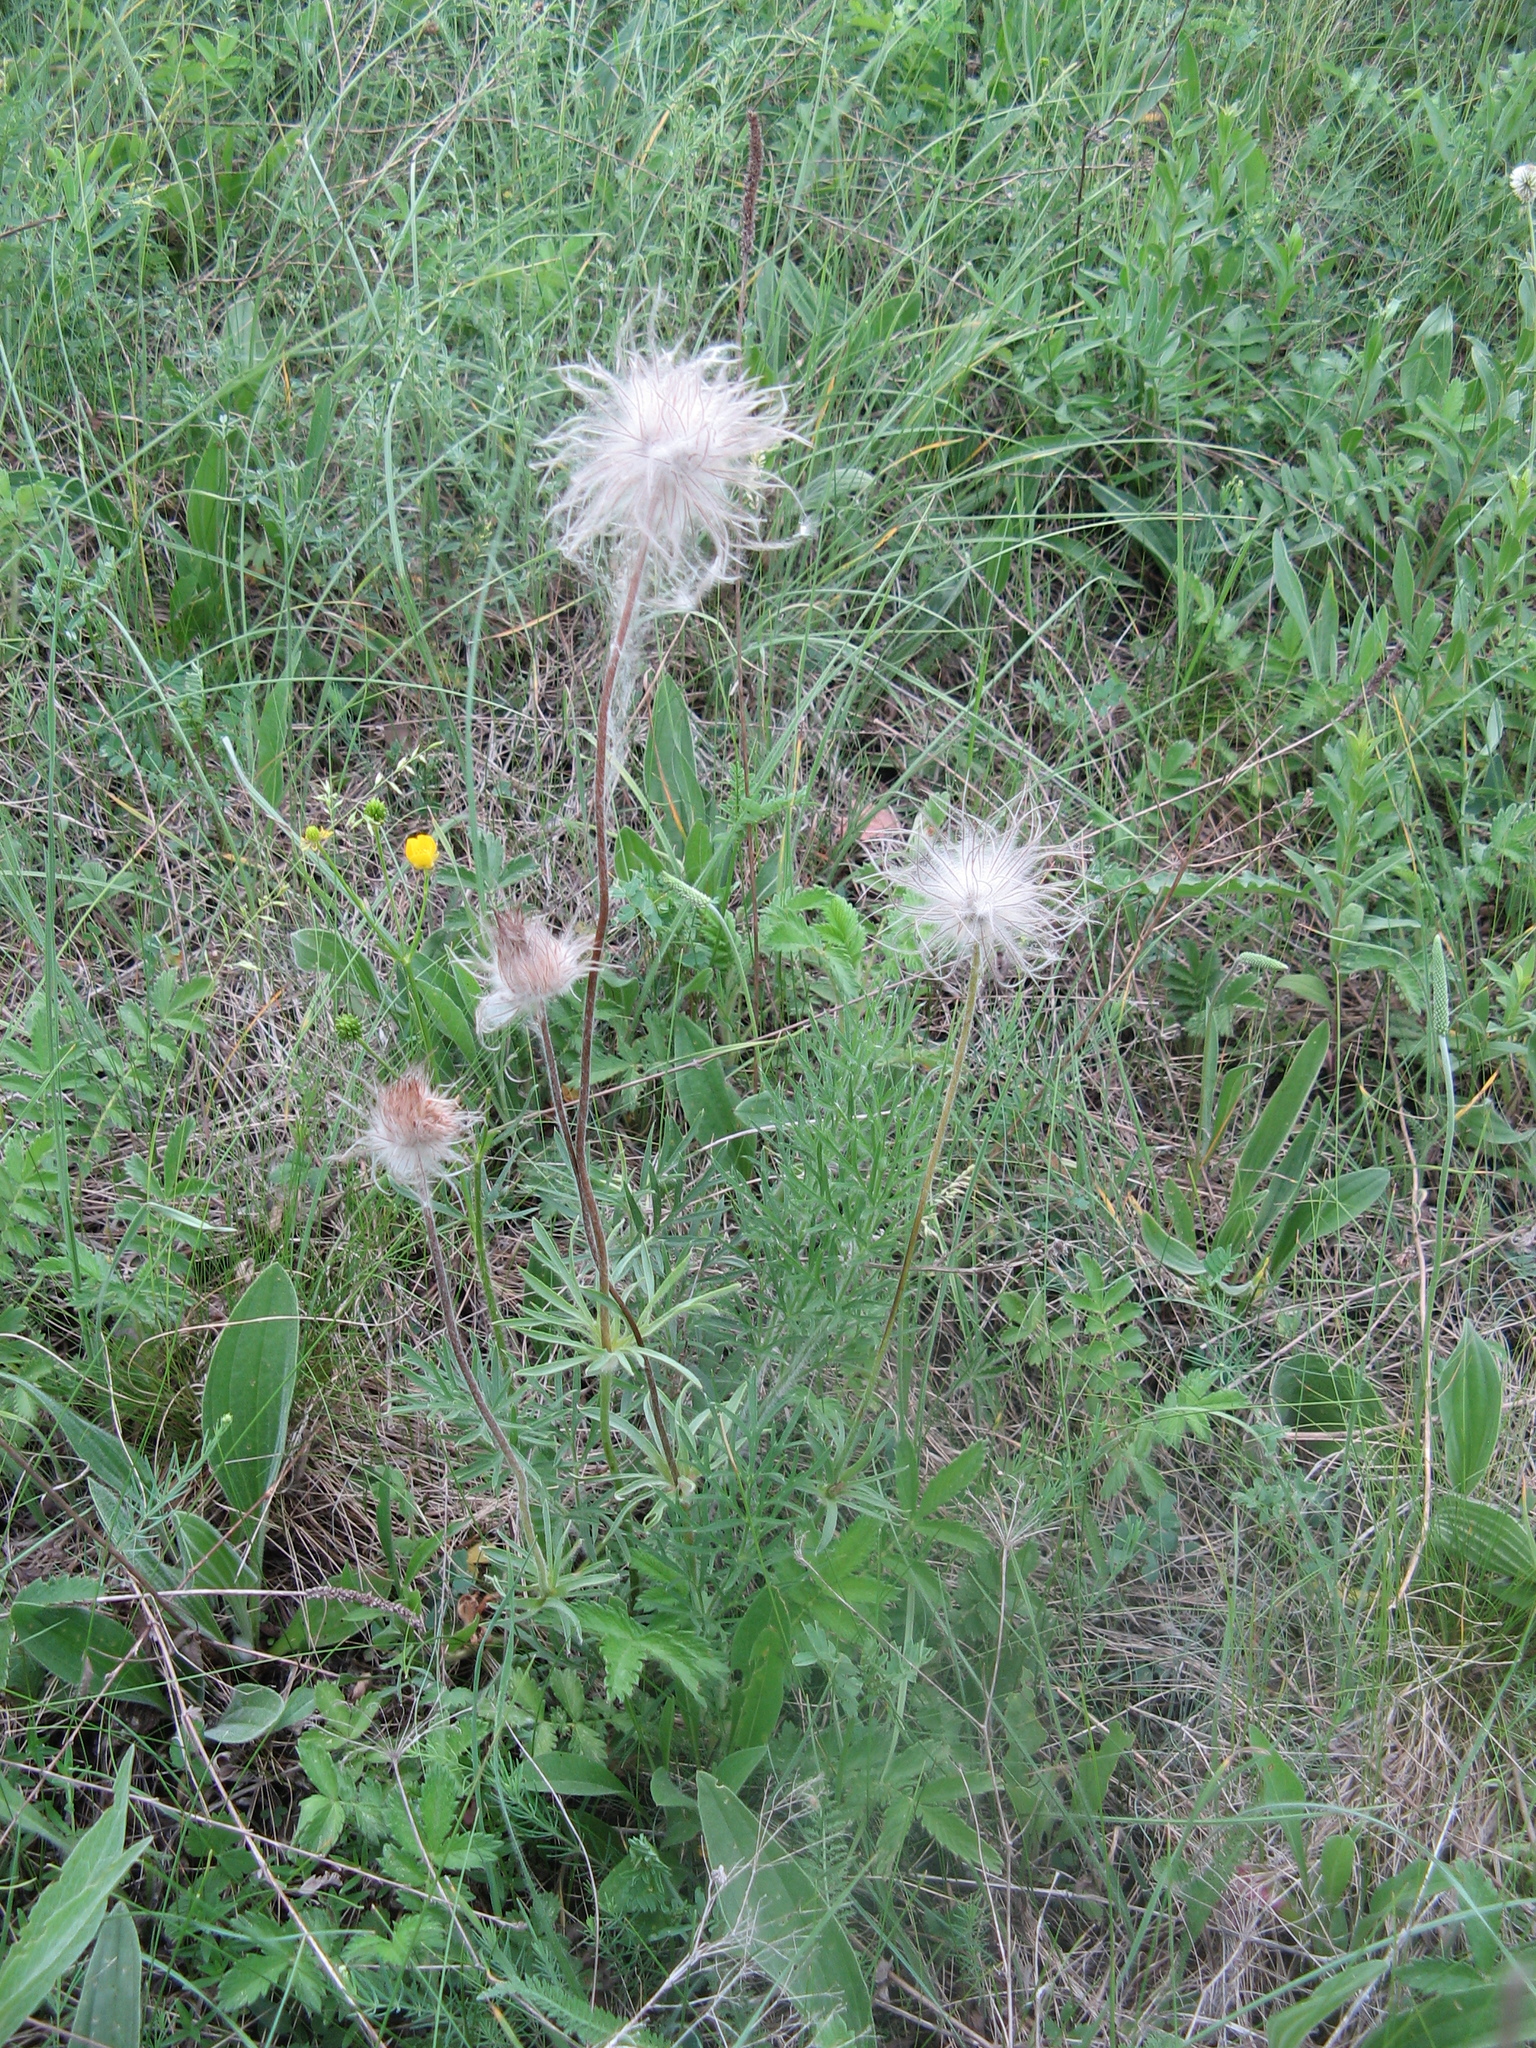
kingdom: Plantae
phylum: Tracheophyta
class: Magnoliopsida
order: Ranunculales
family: Ranunculaceae
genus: Pulsatilla
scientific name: Pulsatilla pratensis
